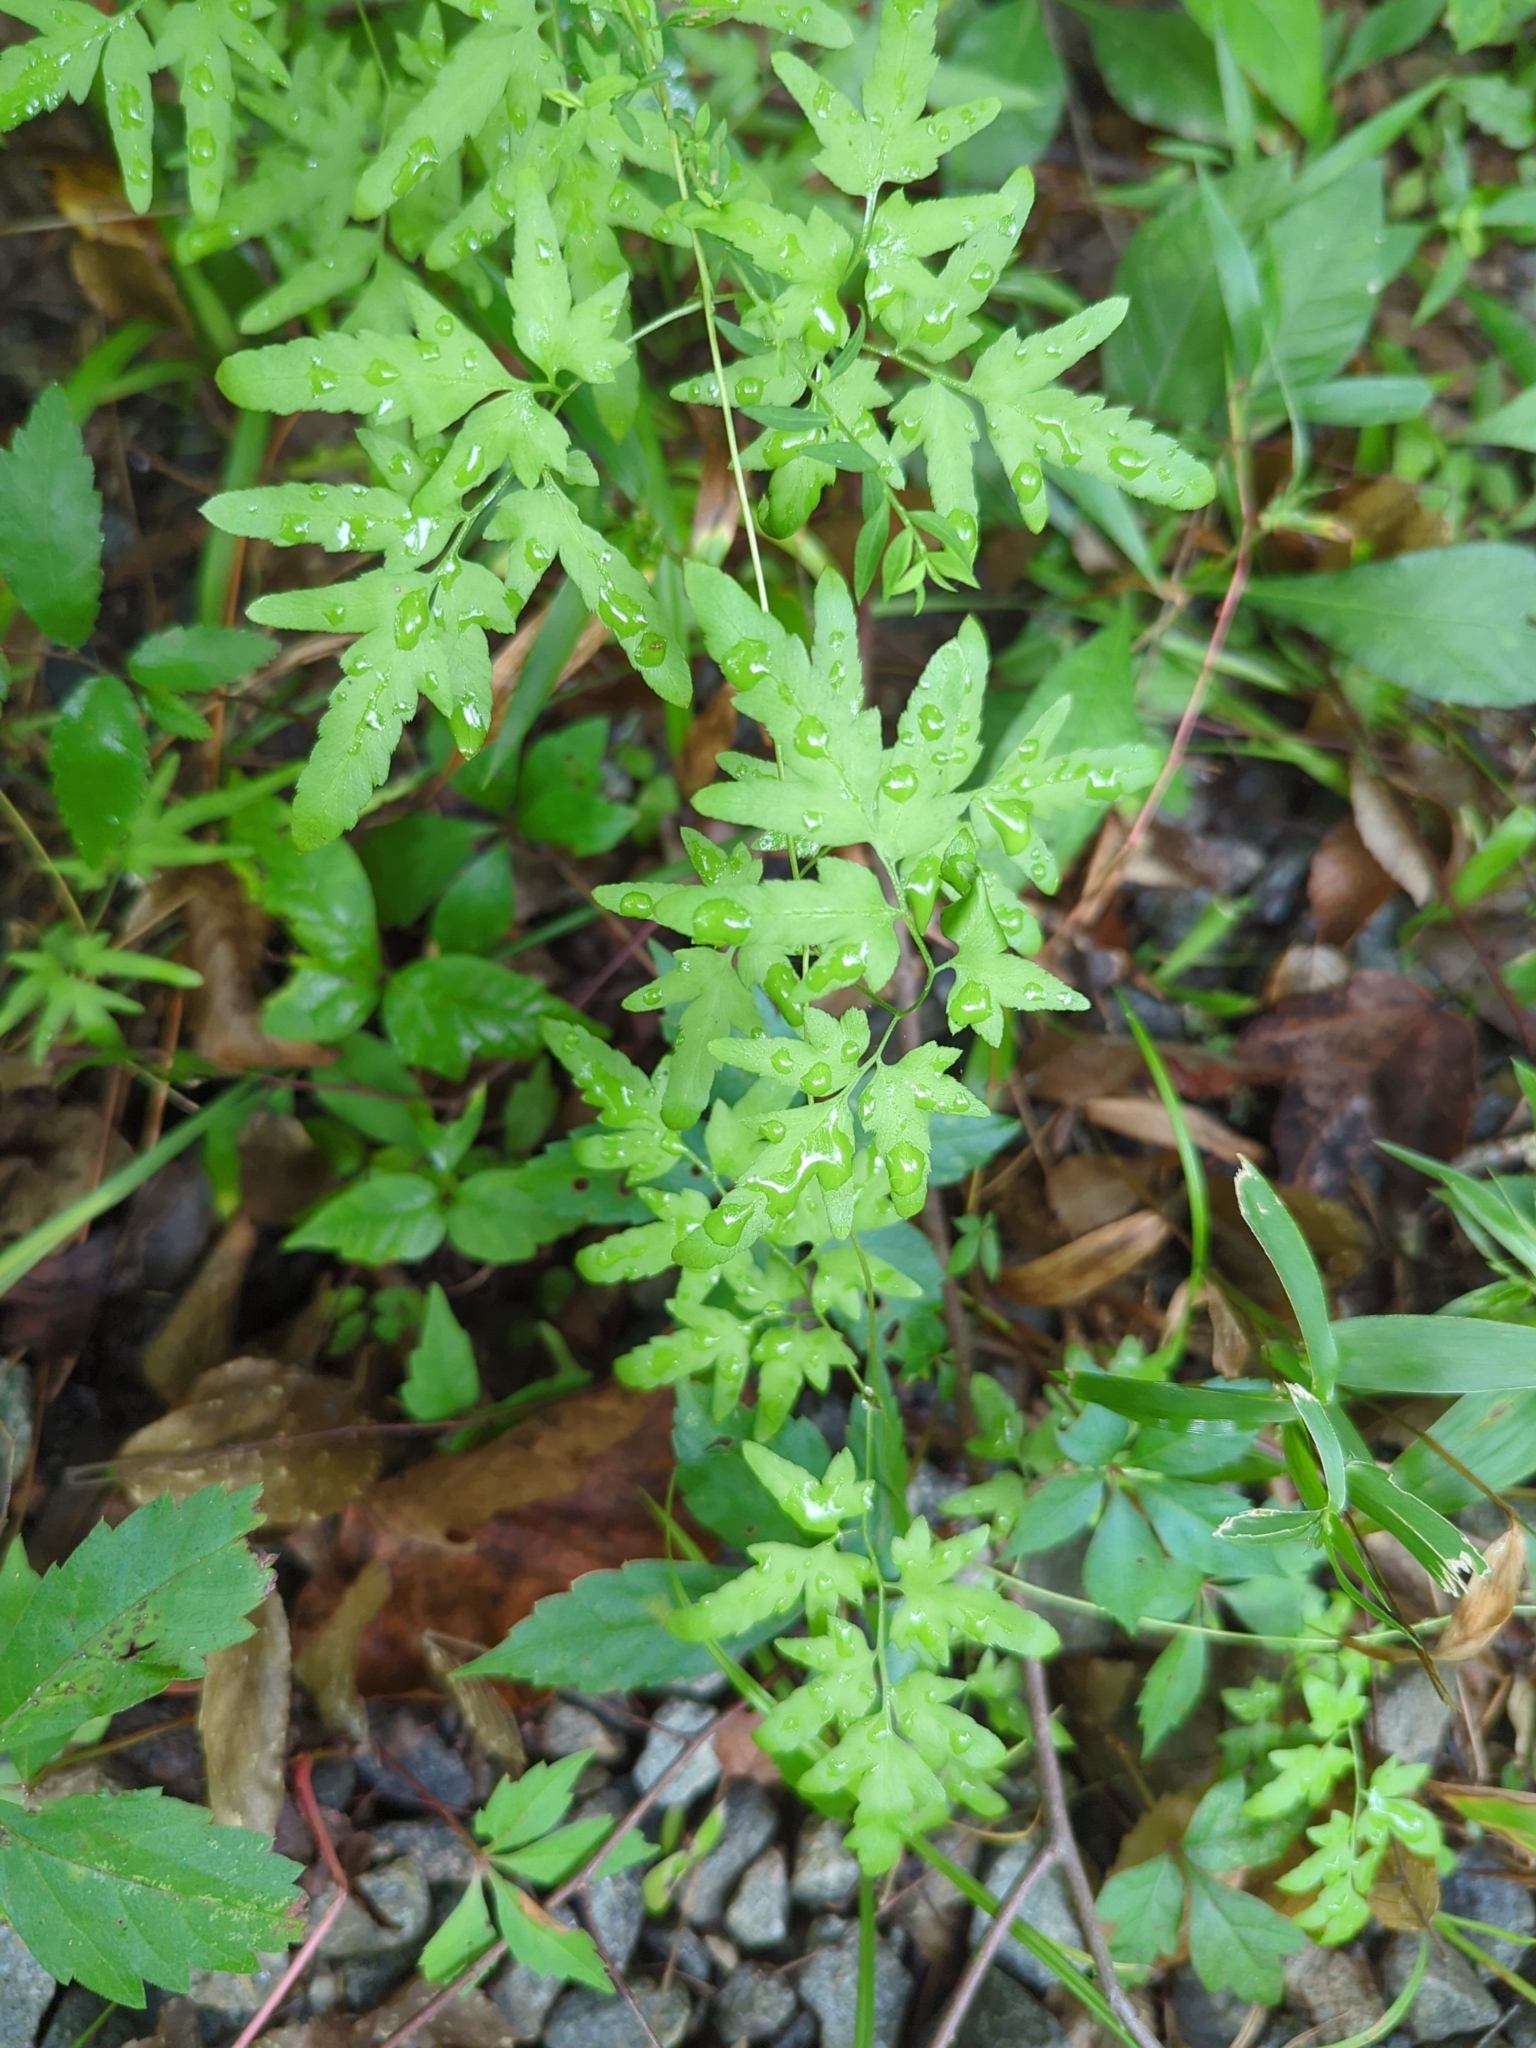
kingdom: Plantae
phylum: Tracheophyta
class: Polypodiopsida
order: Schizaeales
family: Lygodiaceae
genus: Lygodium
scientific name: Lygodium japonicum
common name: Japanese climbing fern
